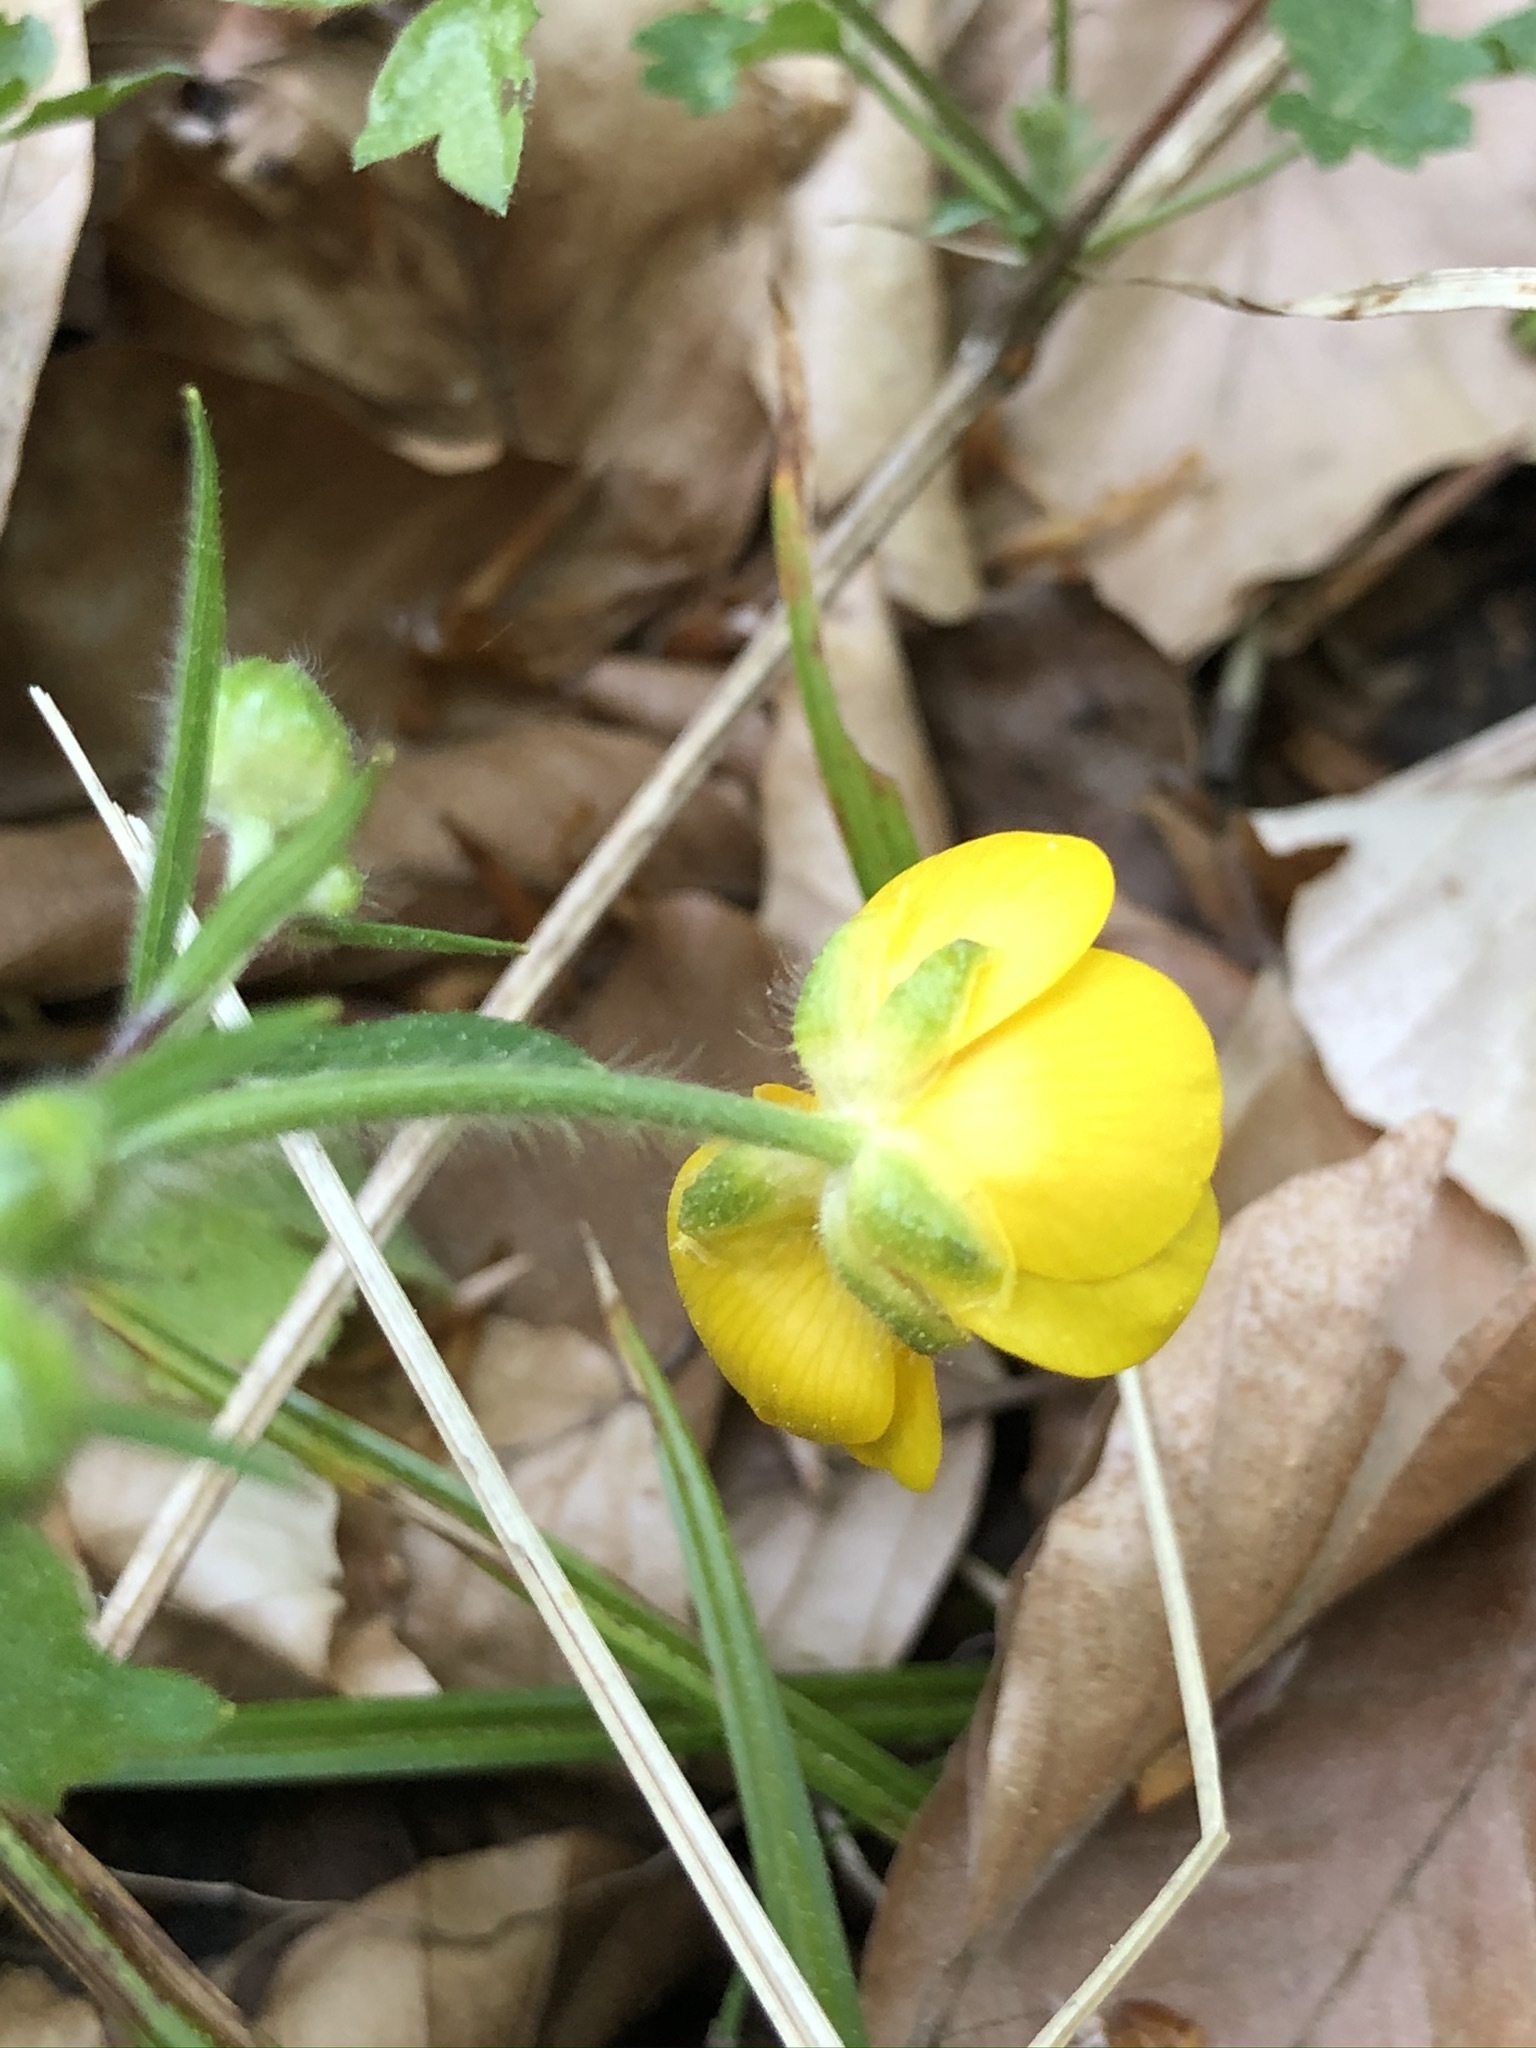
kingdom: Plantae
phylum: Tracheophyta
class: Magnoliopsida
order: Ranunculales
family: Ranunculaceae
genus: Ranunculus
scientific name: Ranunculus lanuginosus
